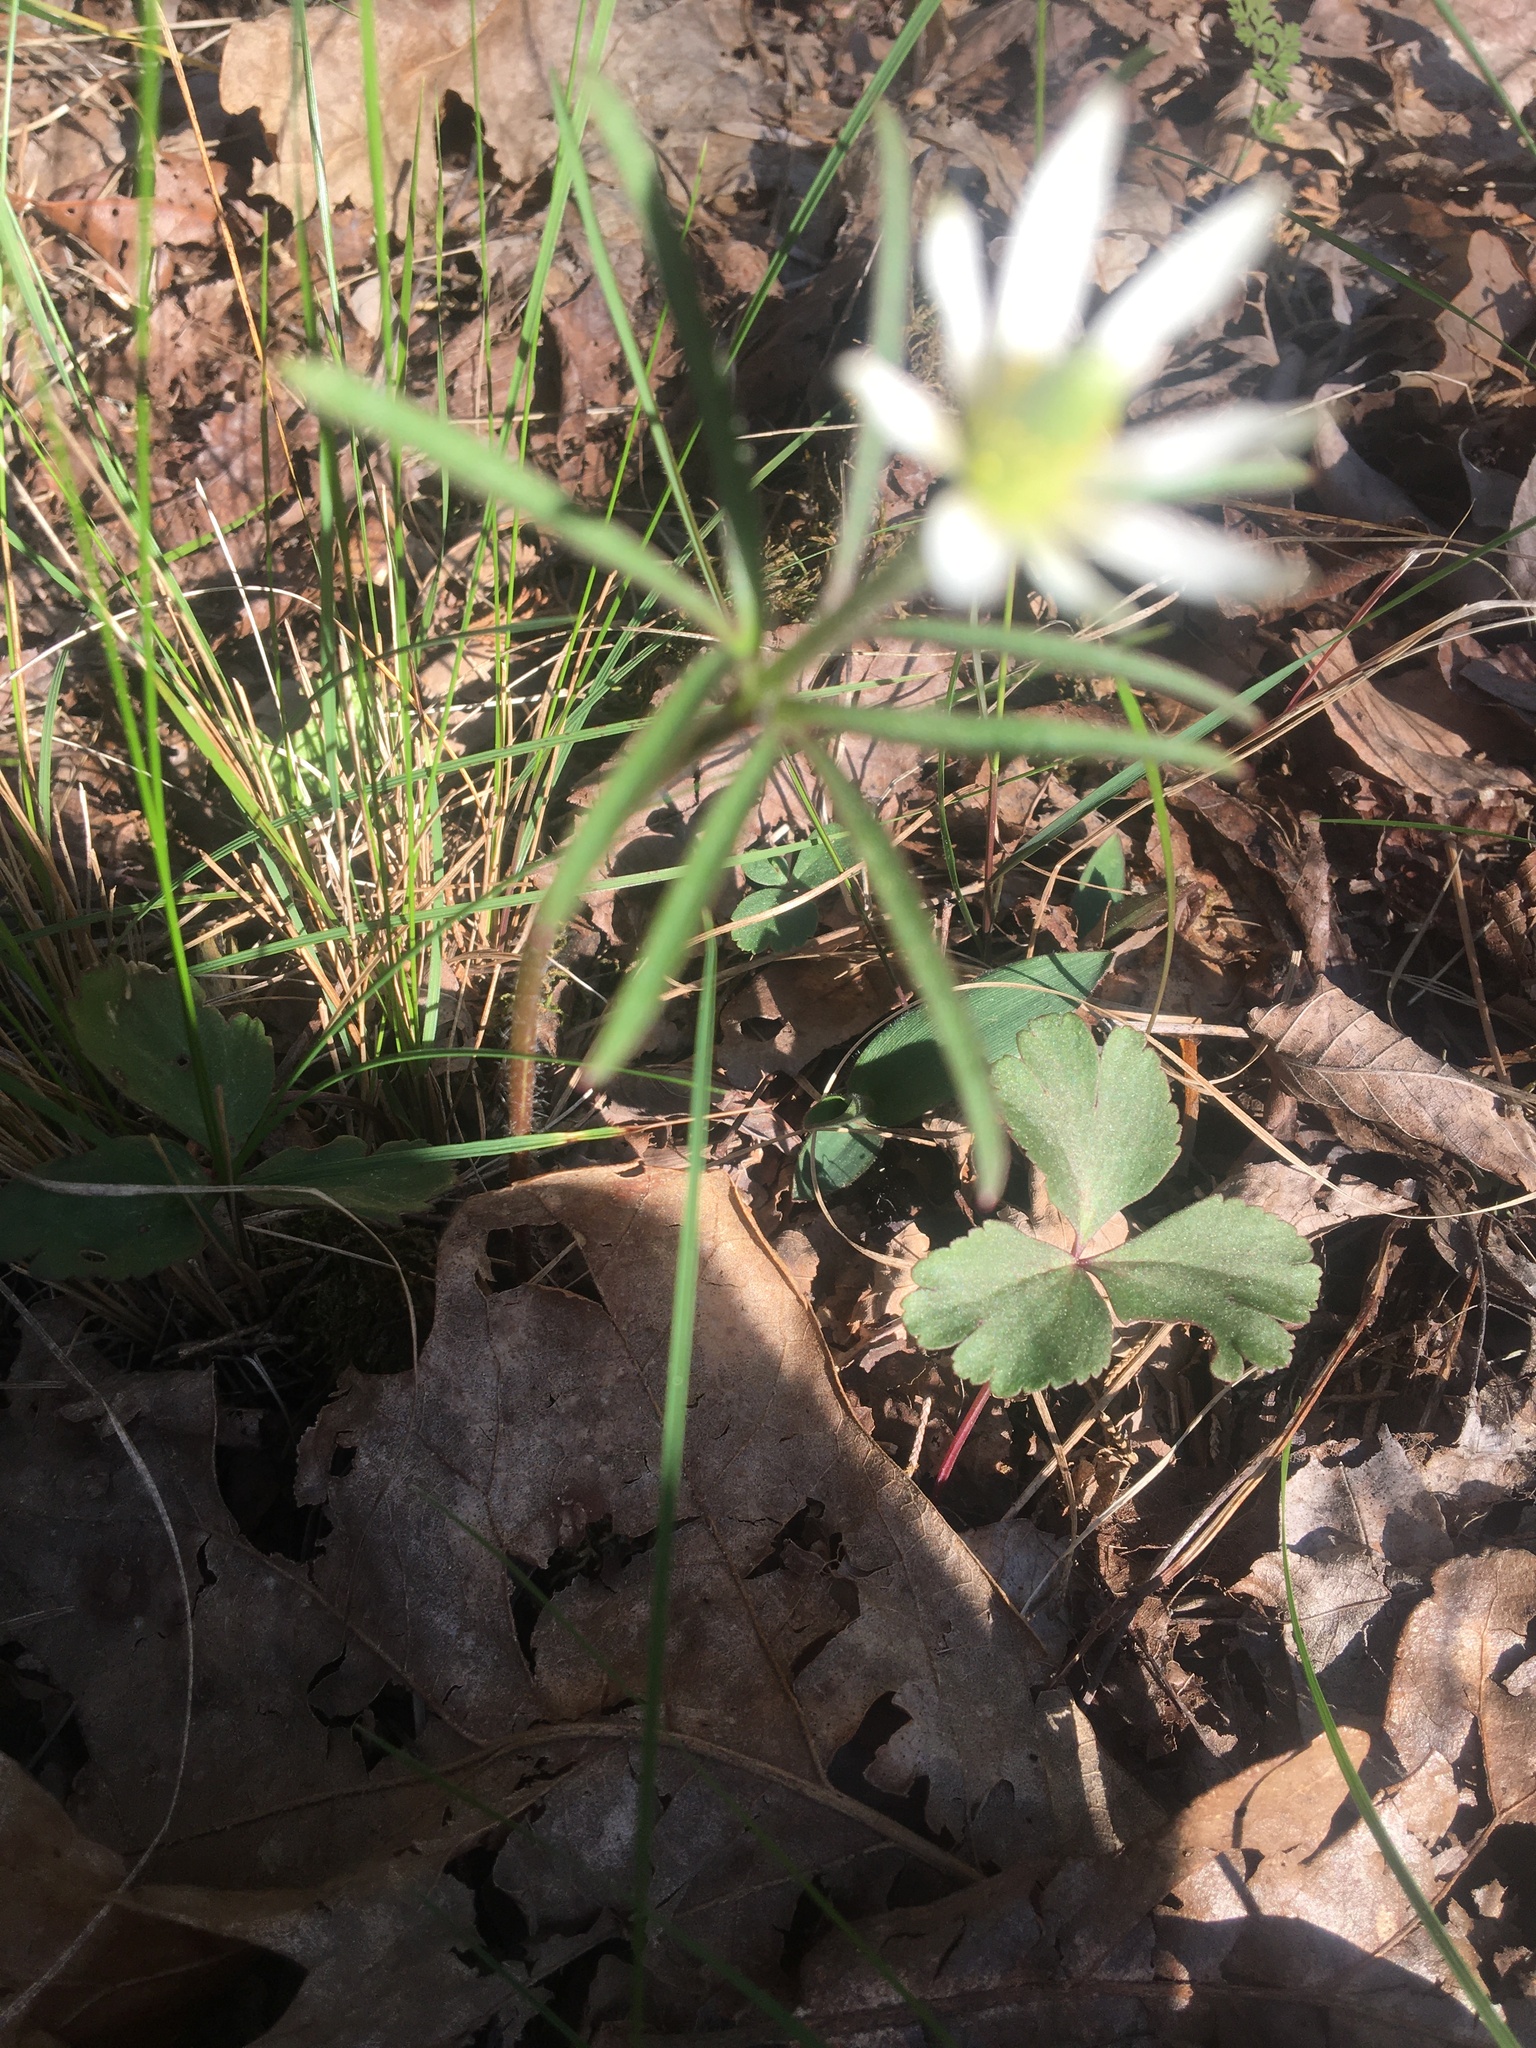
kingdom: Plantae
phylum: Tracheophyta
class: Magnoliopsida
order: Ranunculales
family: Ranunculaceae
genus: Anemone
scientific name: Anemone berlandieri
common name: Ten-petal anemone
